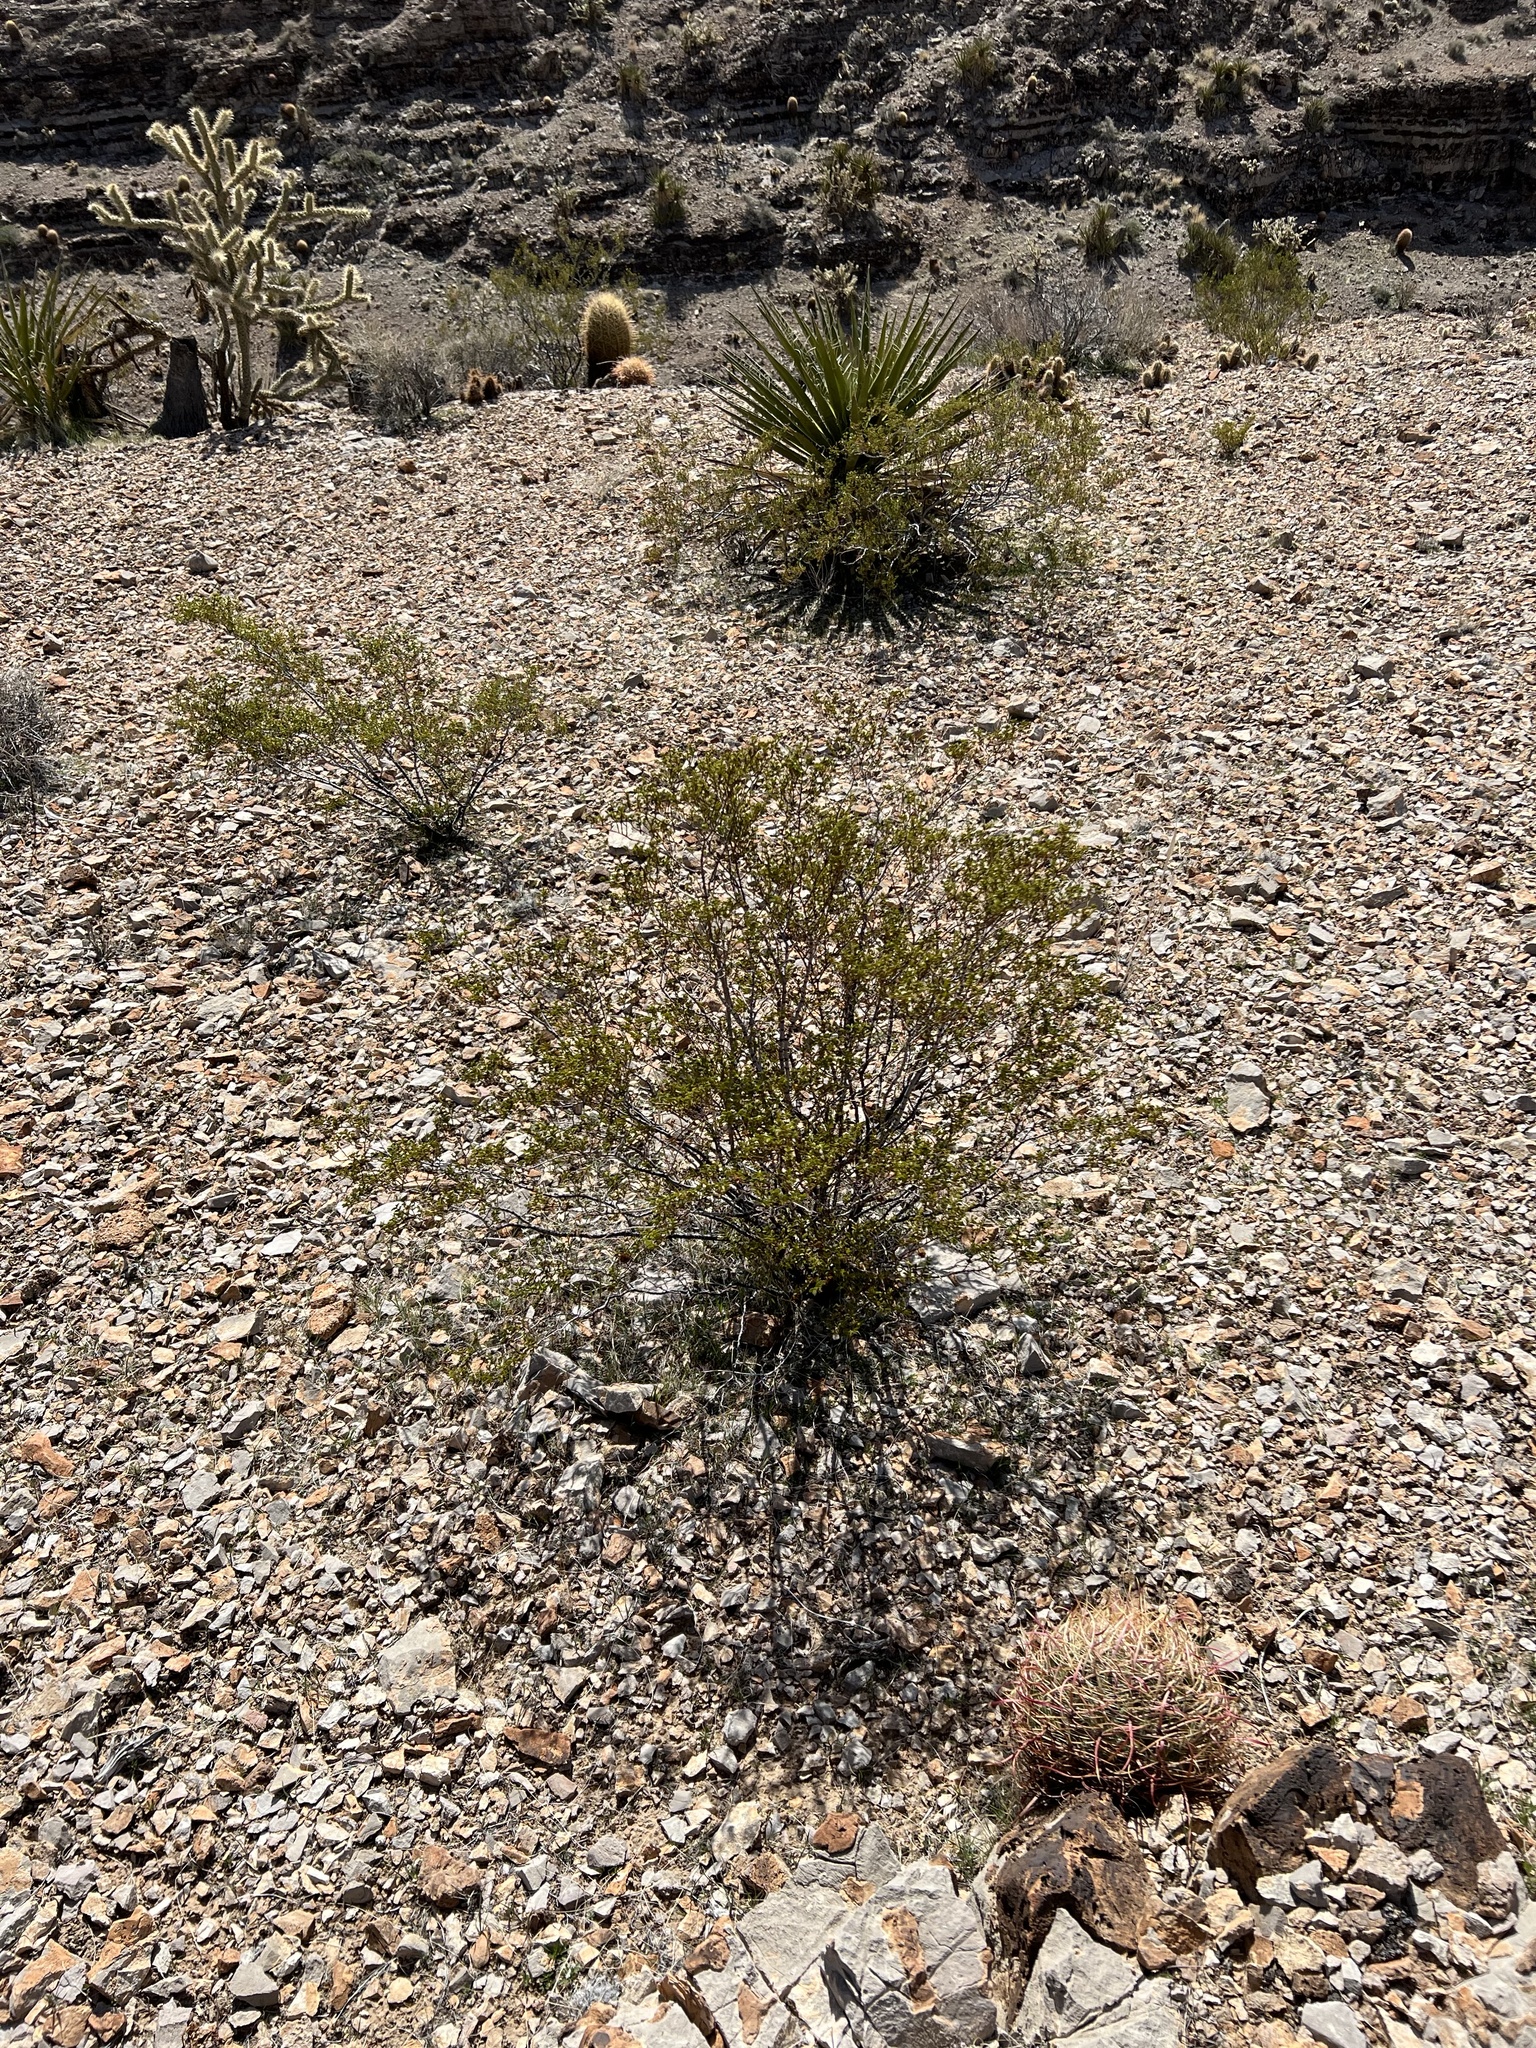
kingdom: Plantae
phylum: Tracheophyta
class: Magnoliopsida
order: Zygophyllales
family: Zygophyllaceae
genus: Larrea
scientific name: Larrea tridentata
